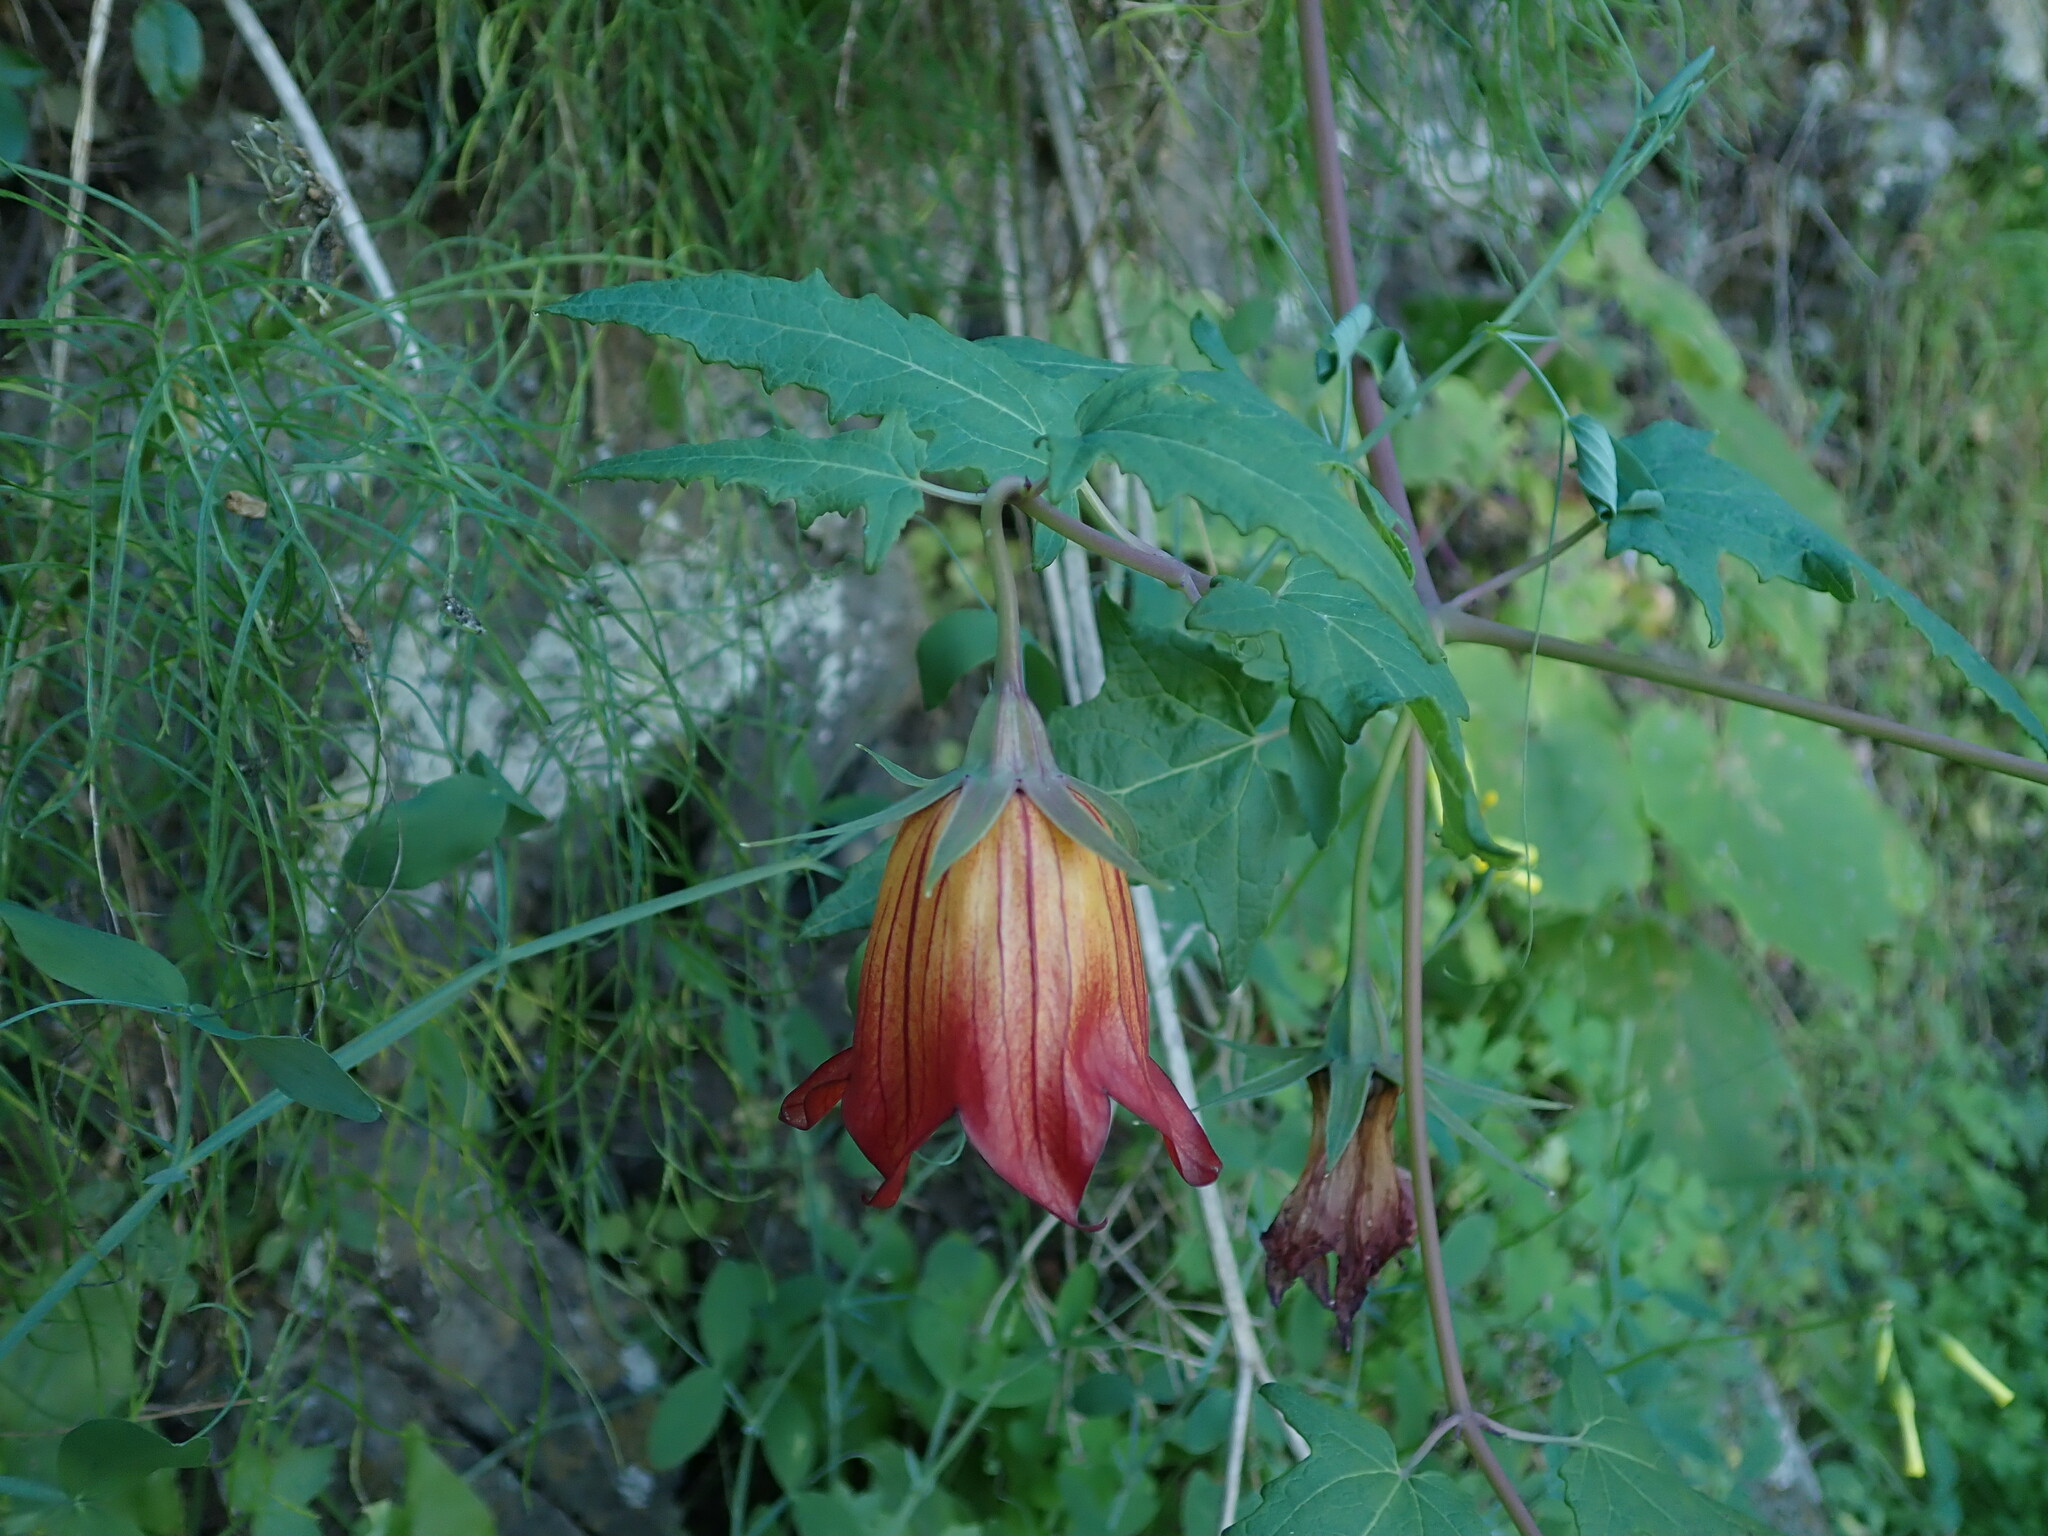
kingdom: Plantae
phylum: Tracheophyta
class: Magnoliopsida
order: Asterales
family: Campanulaceae
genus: Canarina
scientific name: Canarina canariensis
